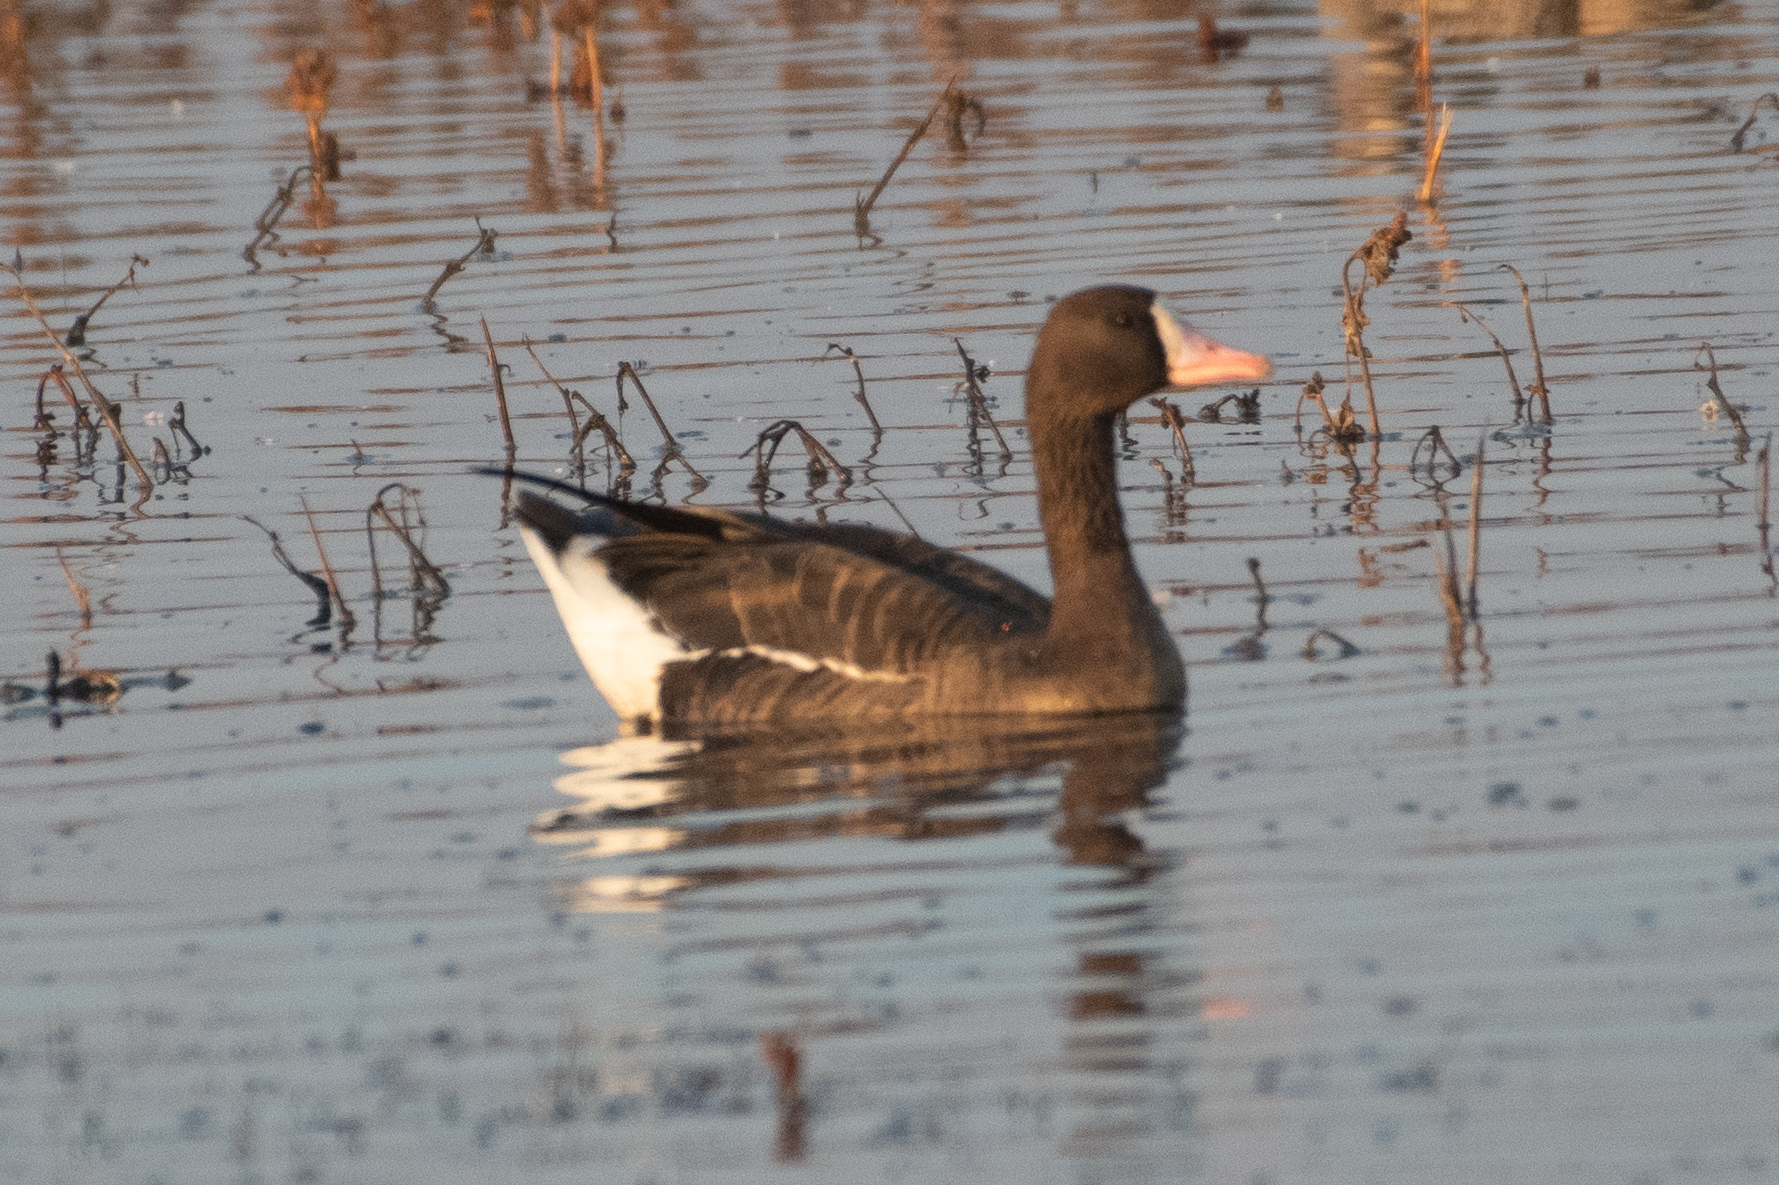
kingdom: Animalia
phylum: Chordata
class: Aves
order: Anseriformes
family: Anatidae
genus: Anser
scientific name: Anser albifrons
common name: Greater white-fronted goose
